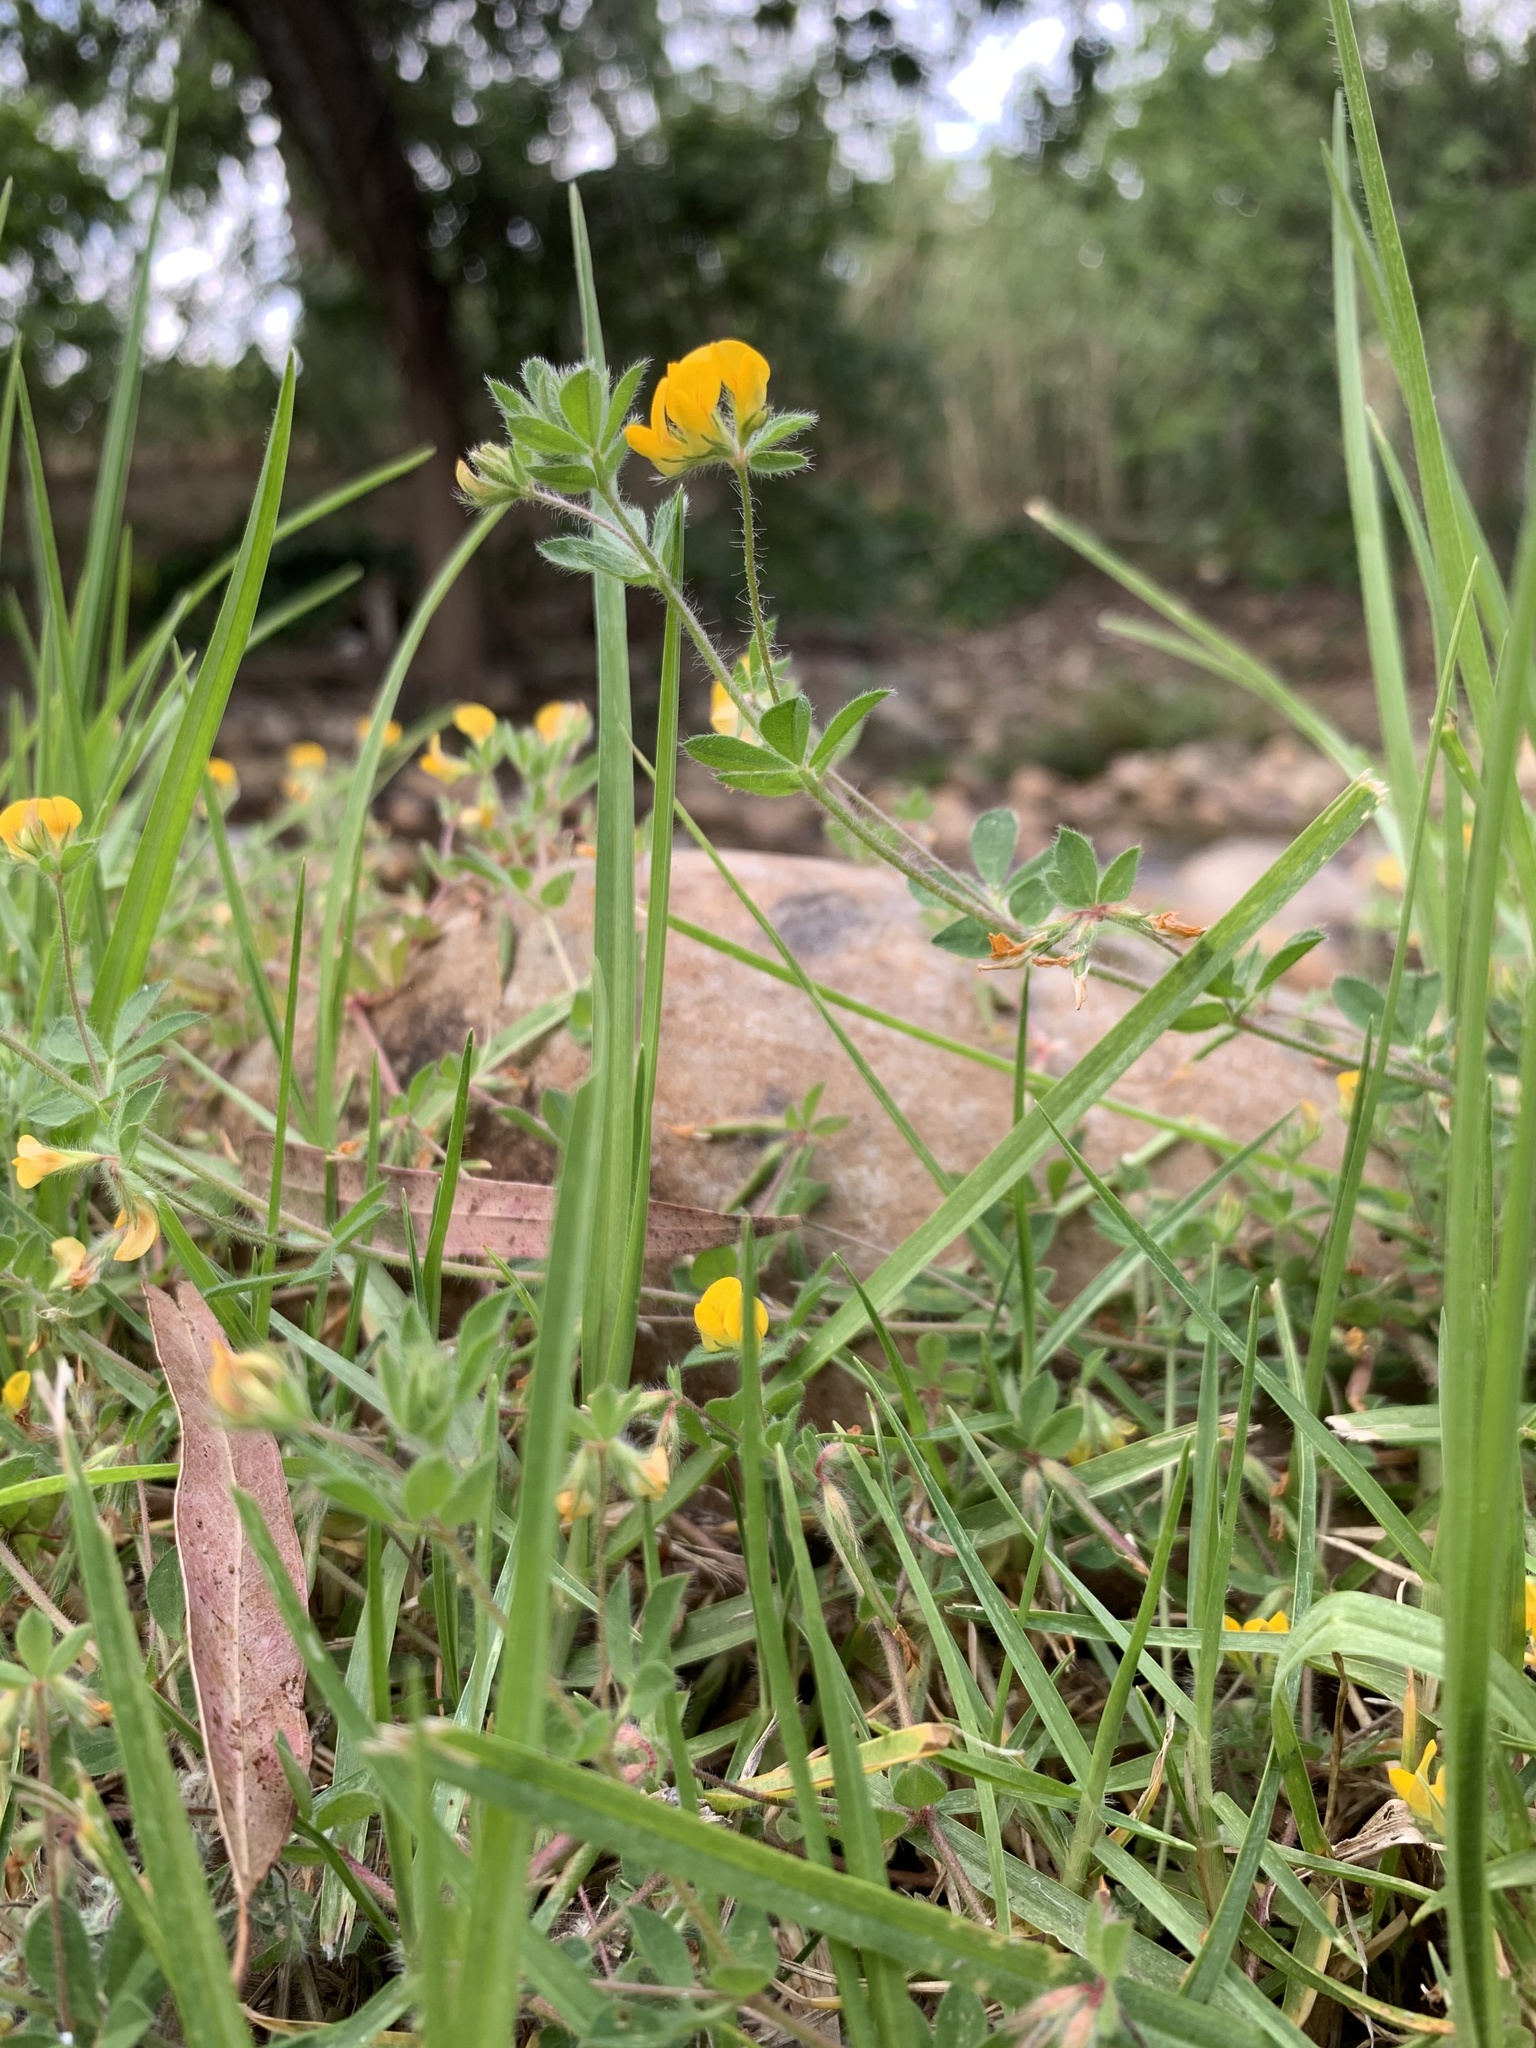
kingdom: Plantae
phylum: Tracheophyta
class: Magnoliopsida
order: Fabales
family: Fabaceae
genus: Lotus
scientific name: Lotus subbiflorus
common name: Hairy bird's-foot trefoil
